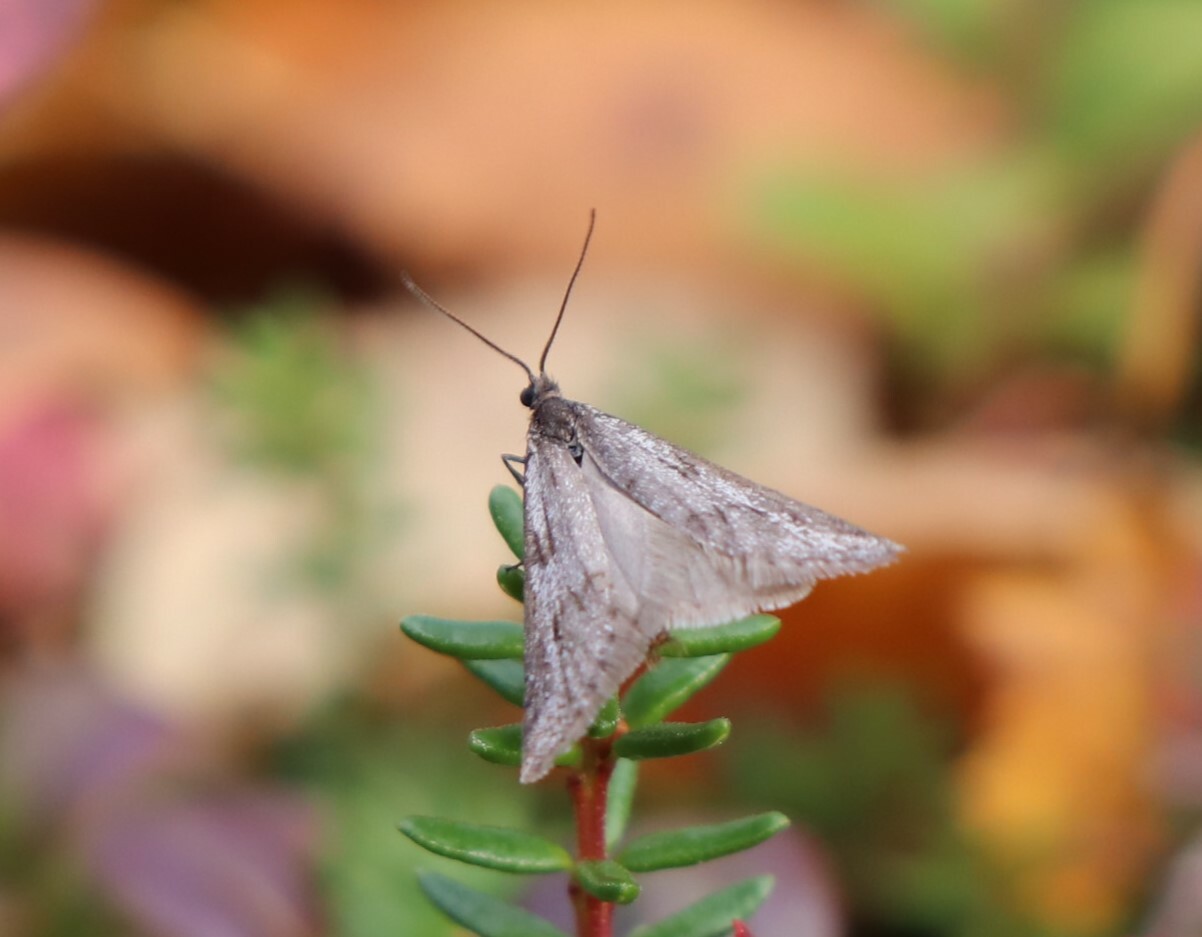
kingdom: Animalia
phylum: Arthropoda
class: Insecta
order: Lepidoptera
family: Tortricidae
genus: Exapate
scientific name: Exapate congelatella
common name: Autumnal shade
